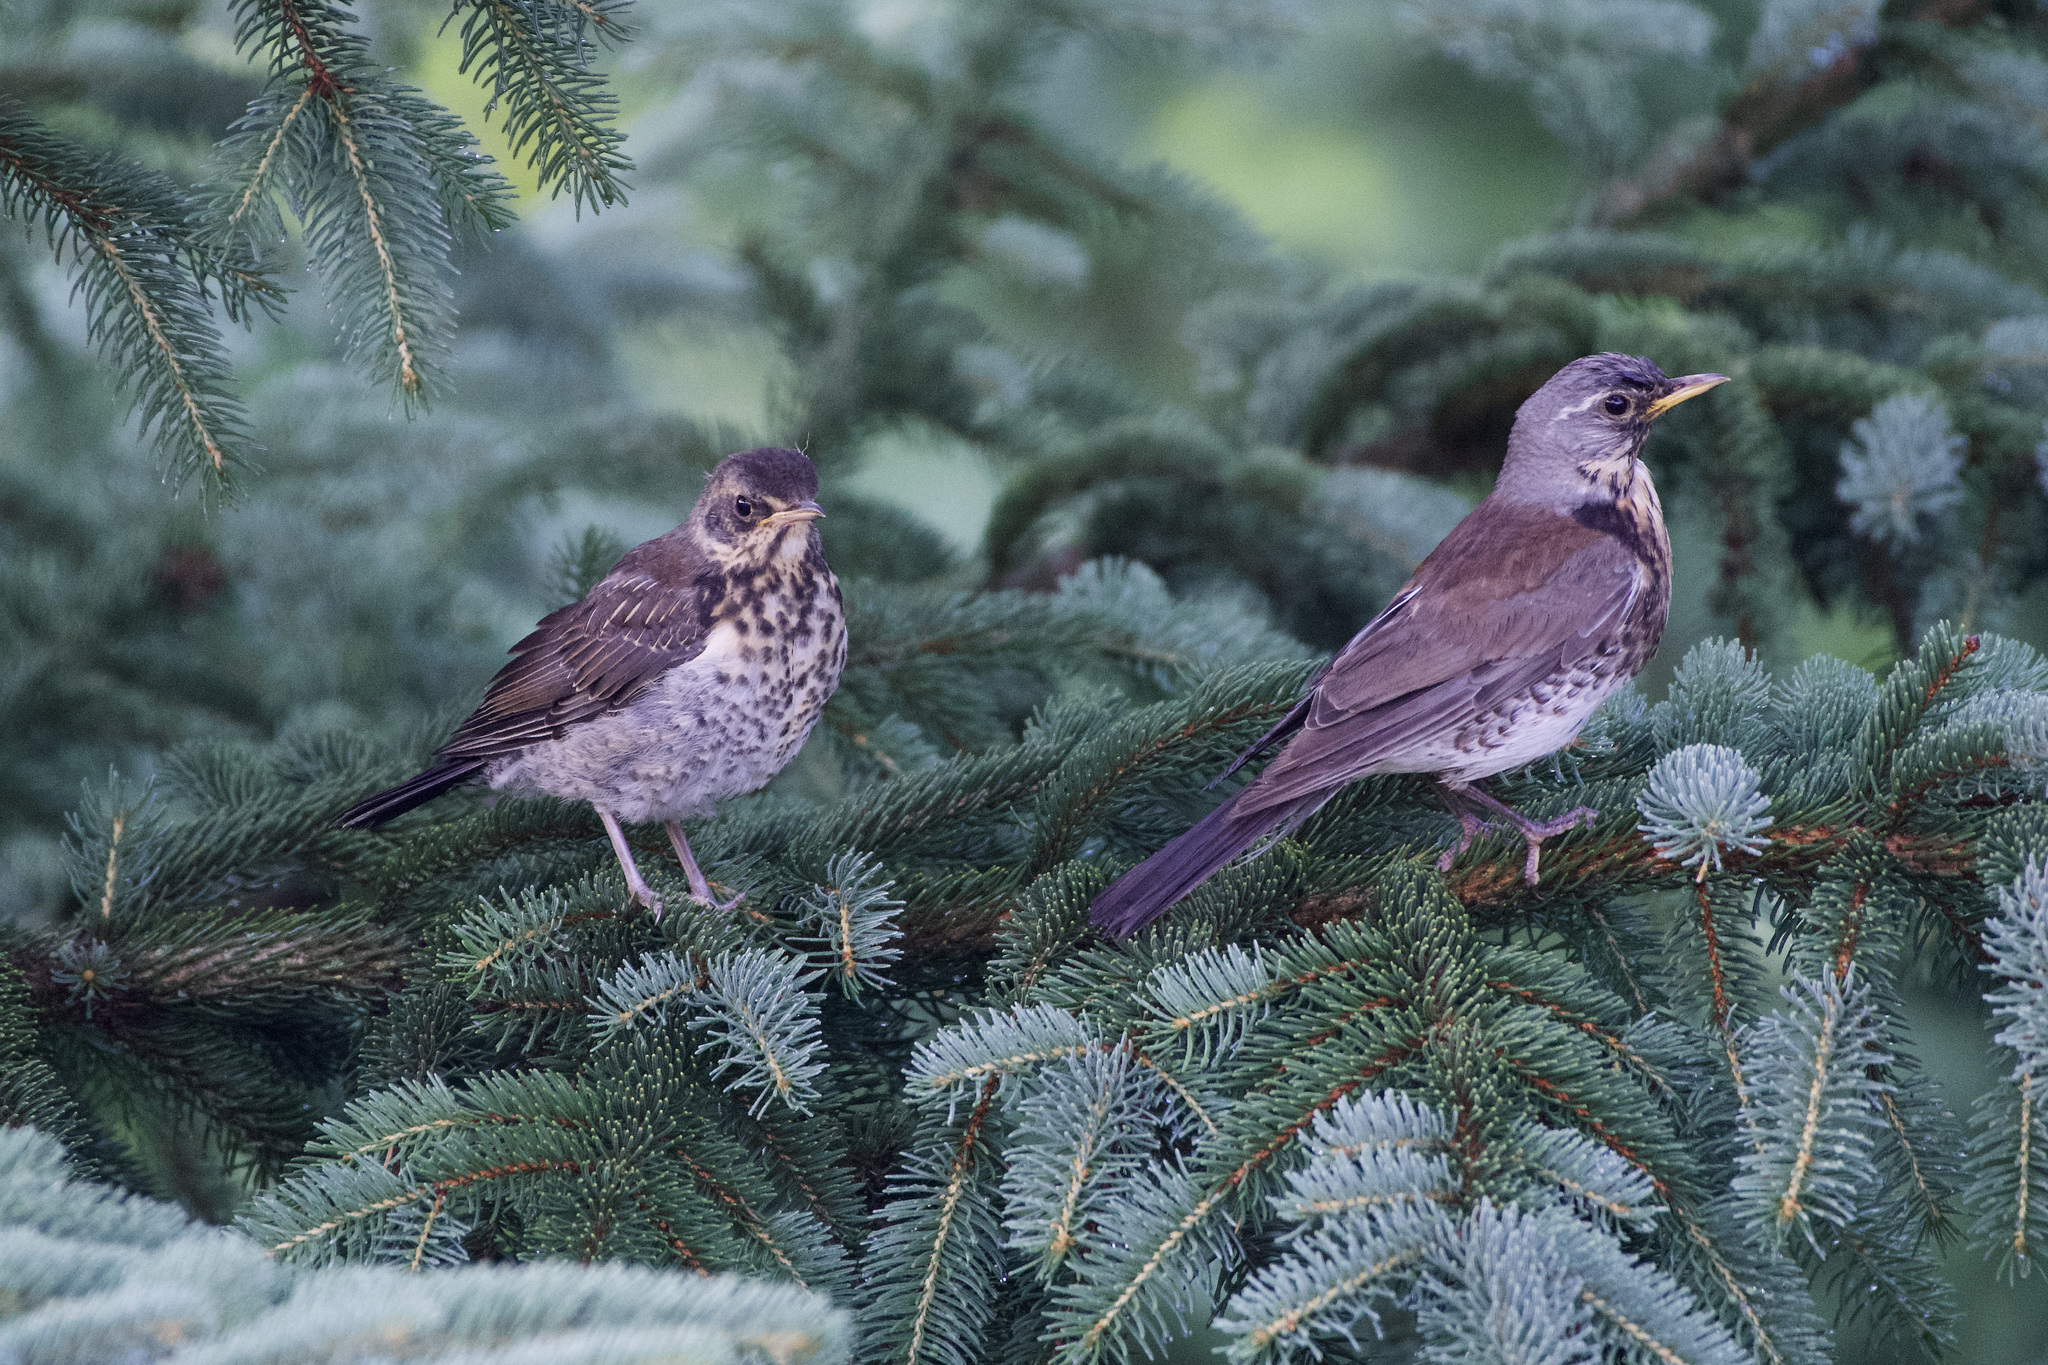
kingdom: Animalia
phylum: Chordata
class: Aves
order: Passeriformes
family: Turdidae
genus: Turdus
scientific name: Turdus pilaris
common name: Fieldfare
